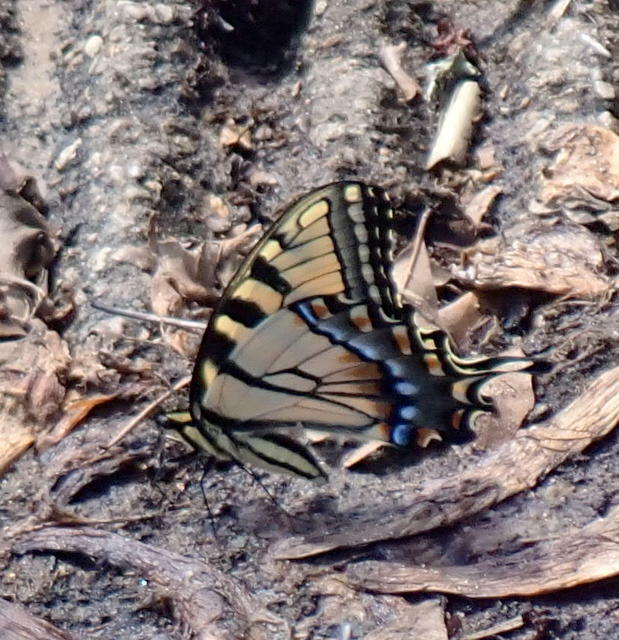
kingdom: Animalia
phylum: Arthropoda
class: Insecta
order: Lepidoptera
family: Papilionidae
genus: Papilio
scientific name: Papilio glaucus
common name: Tiger swallowtail
